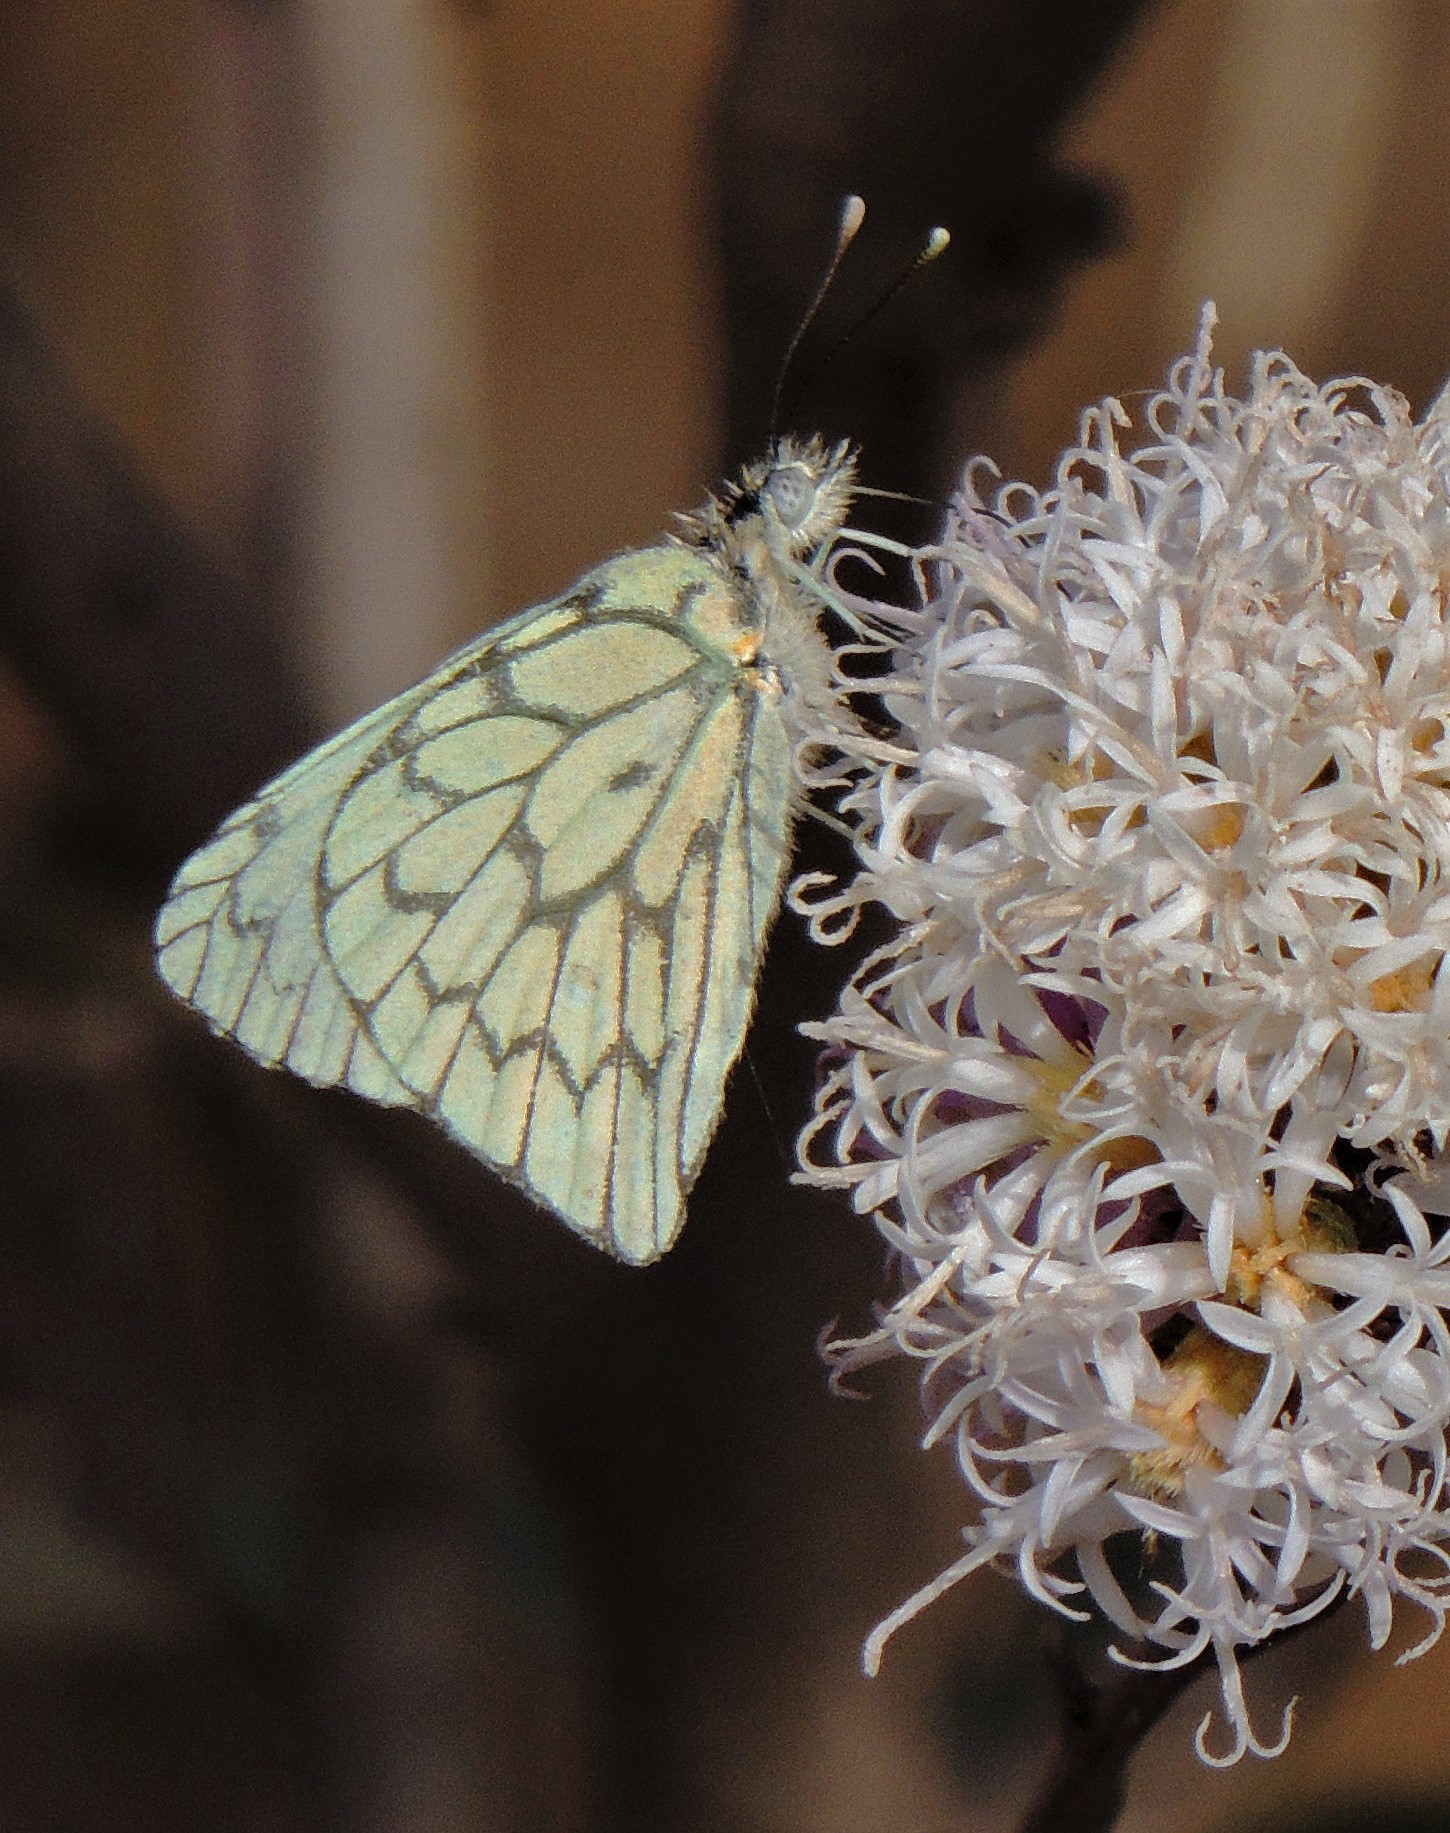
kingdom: Animalia
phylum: Arthropoda
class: Insecta
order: Lepidoptera
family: Pieridae
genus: Hesperocharis
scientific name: Hesperocharis anguitia
